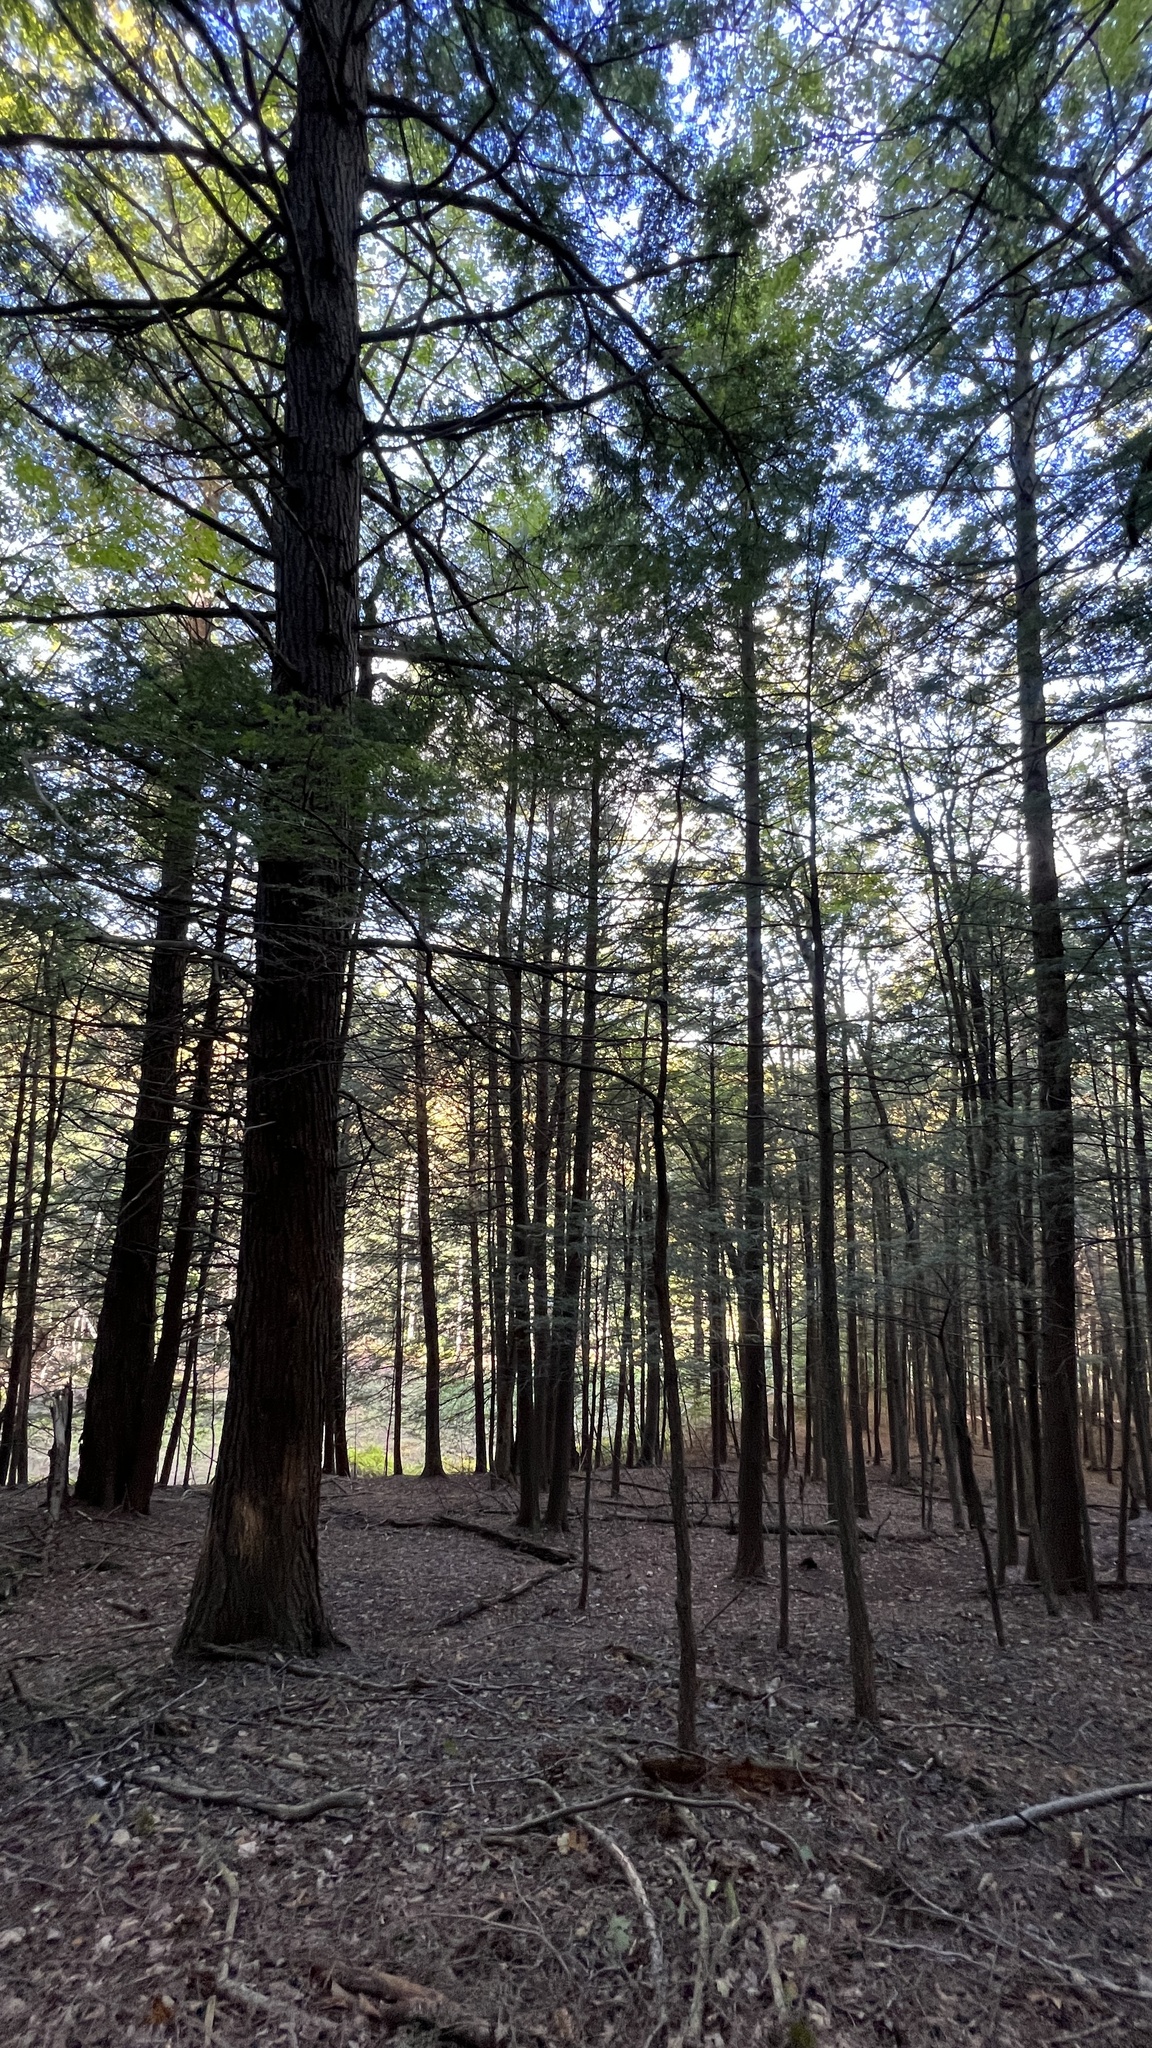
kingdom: Plantae
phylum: Tracheophyta
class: Pinopsida
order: Pinales
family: Pinaceae
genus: Tsuga
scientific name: Tsuga canadensis
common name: Eastern hemlock
